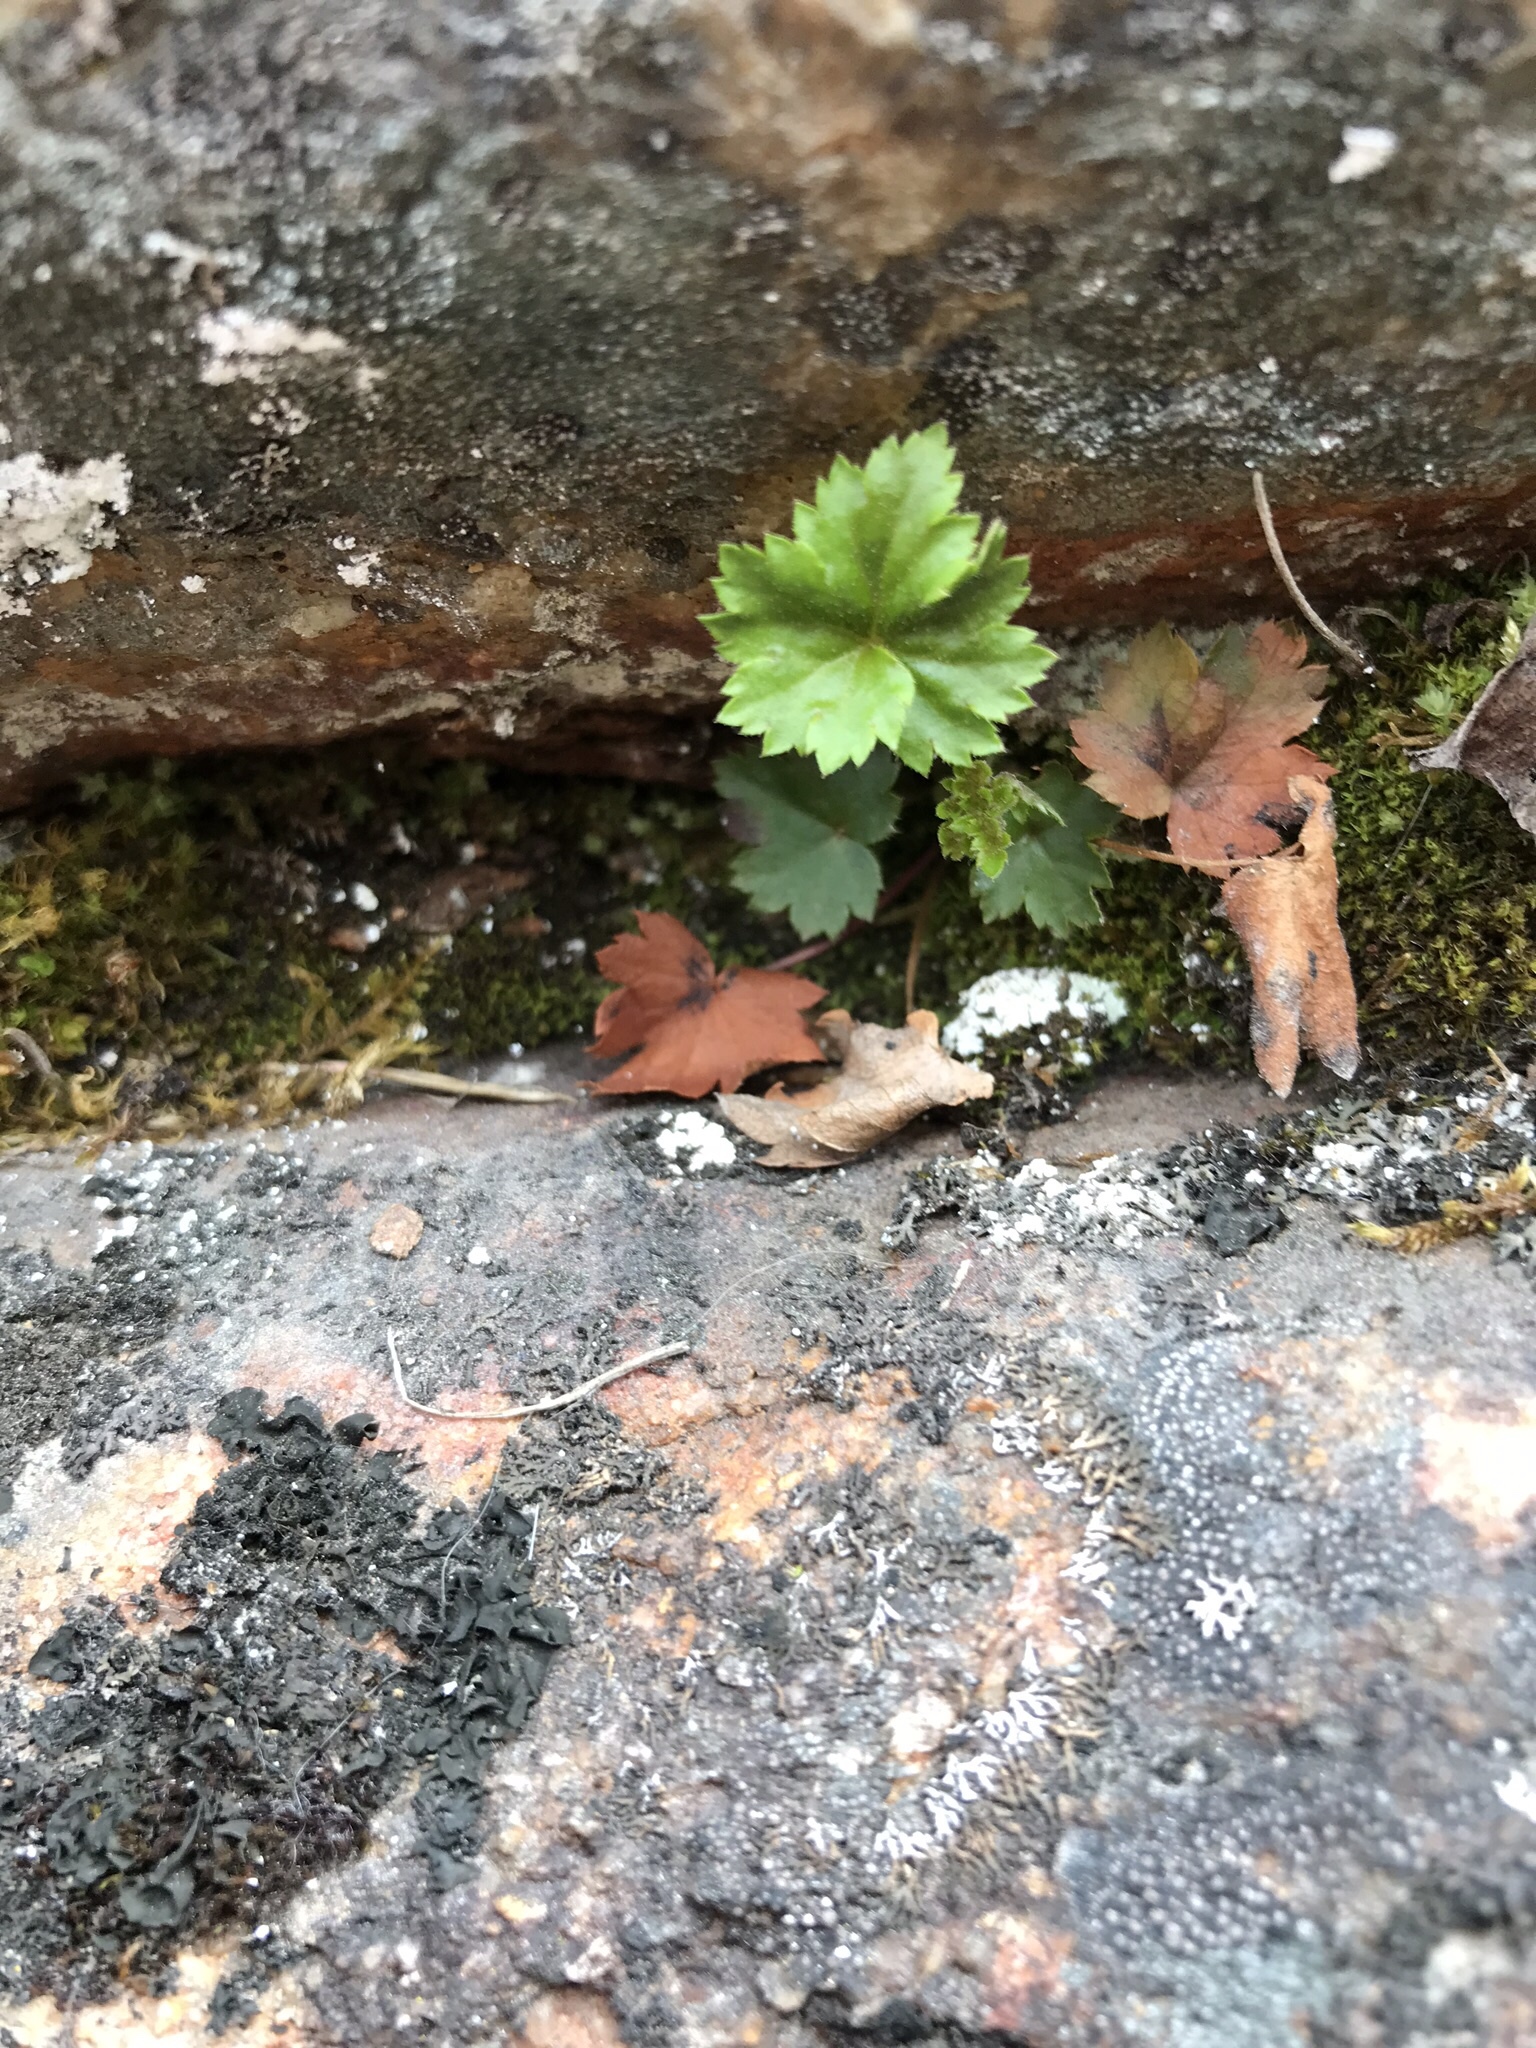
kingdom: Plantae
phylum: Tracheophyta
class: Magnoliopsida
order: Saxifragales
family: Saxifragaceae
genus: Telesonix
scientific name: Telesonix heucheriformis
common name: Alumroot brookfoam
